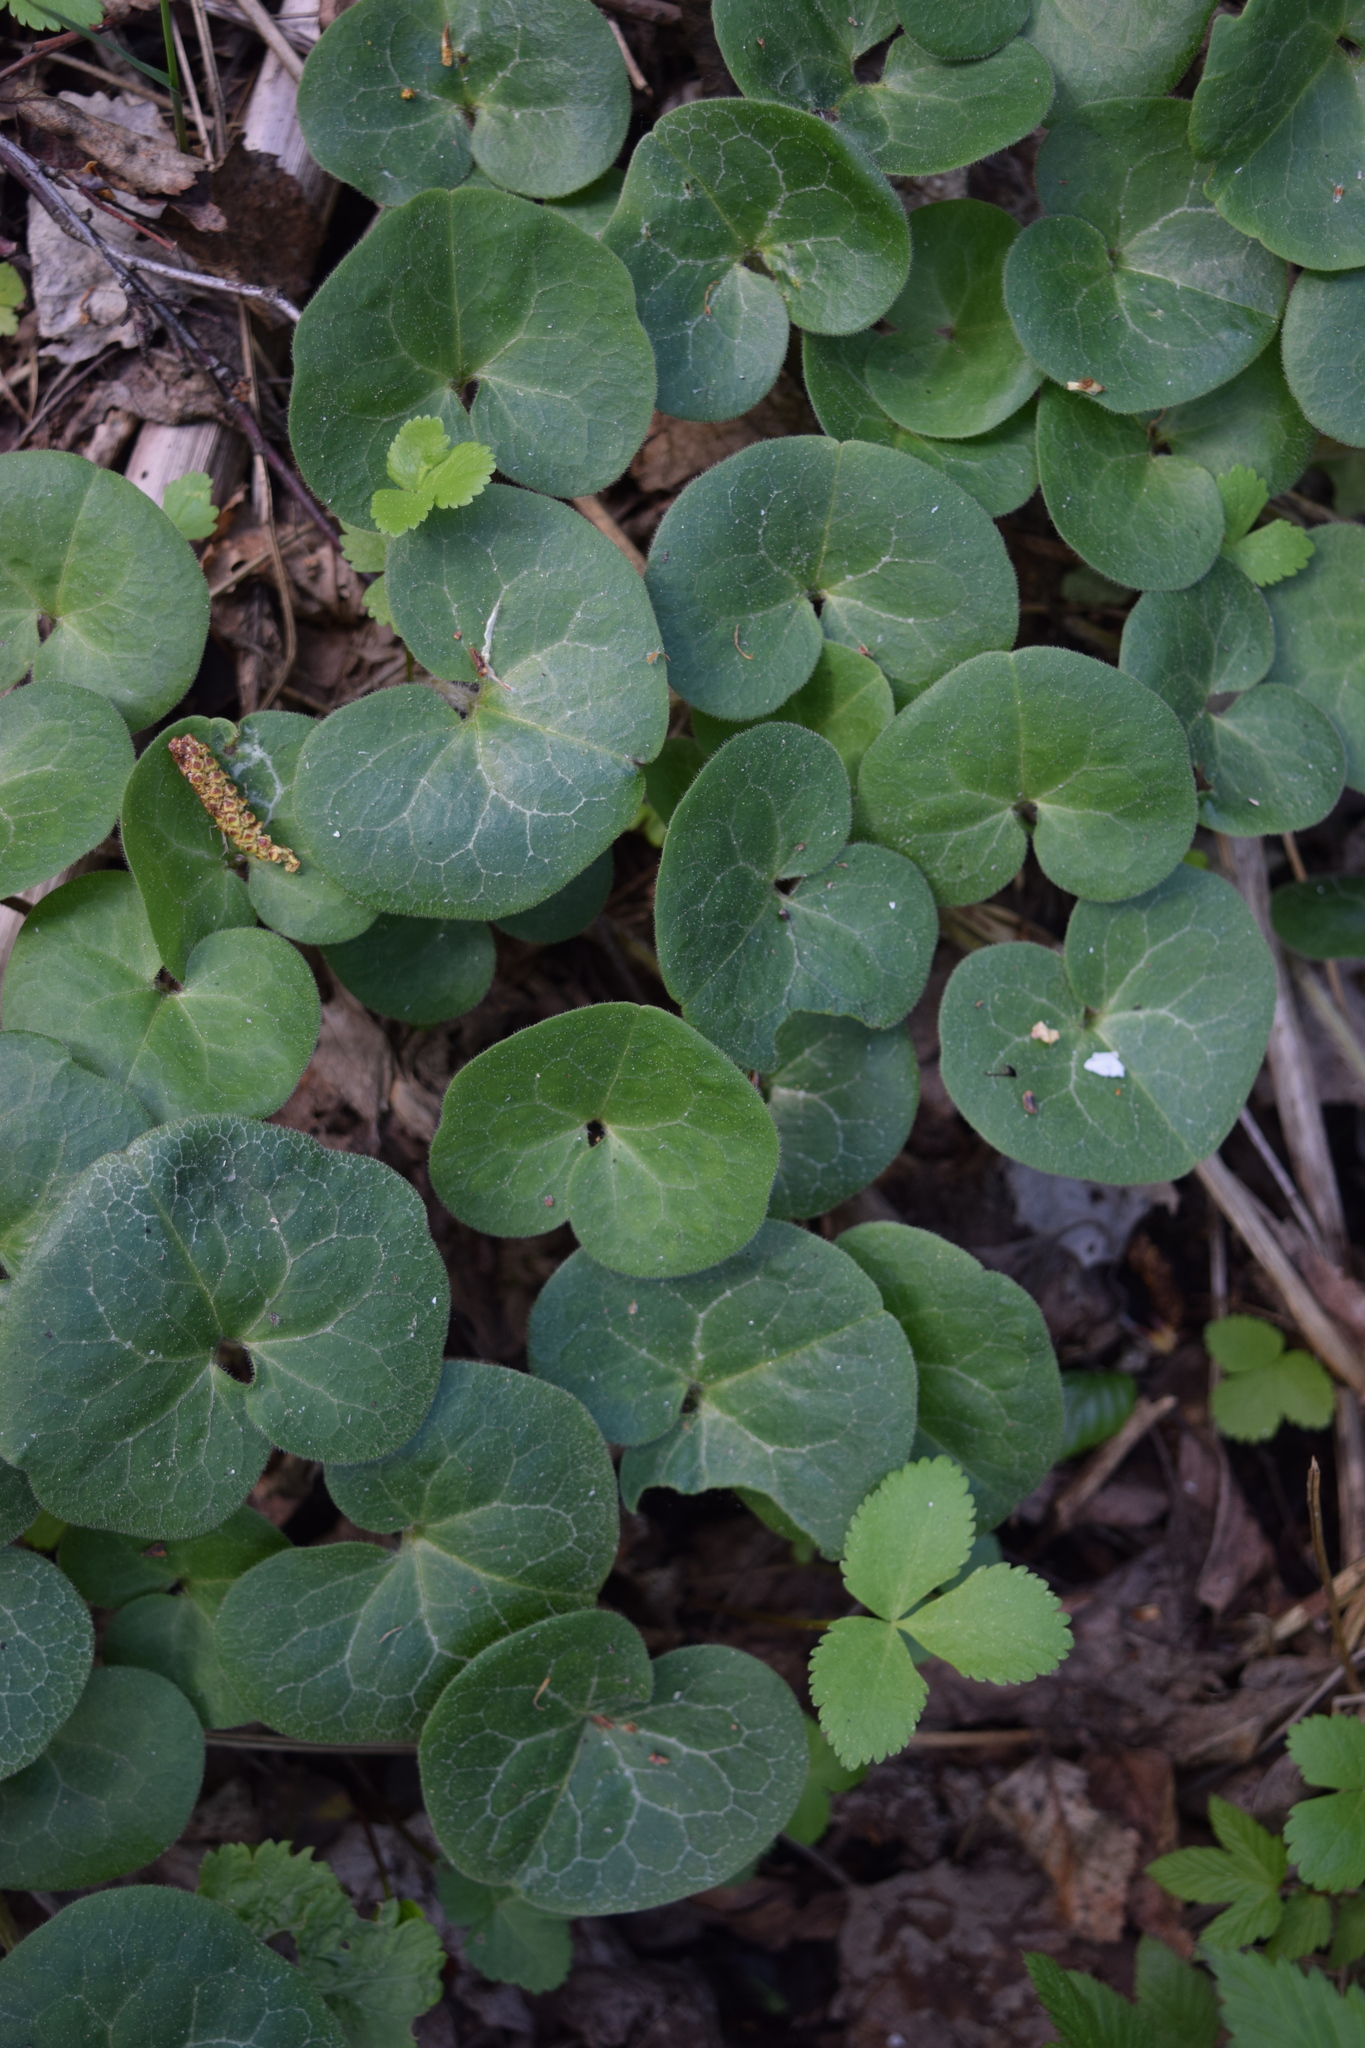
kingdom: Plantae
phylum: Tracheophyta
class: Magnoliopsida
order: Piperales
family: Aristolochiaceae
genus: Asarum
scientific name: Asarum europaeum
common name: Asarabacca
